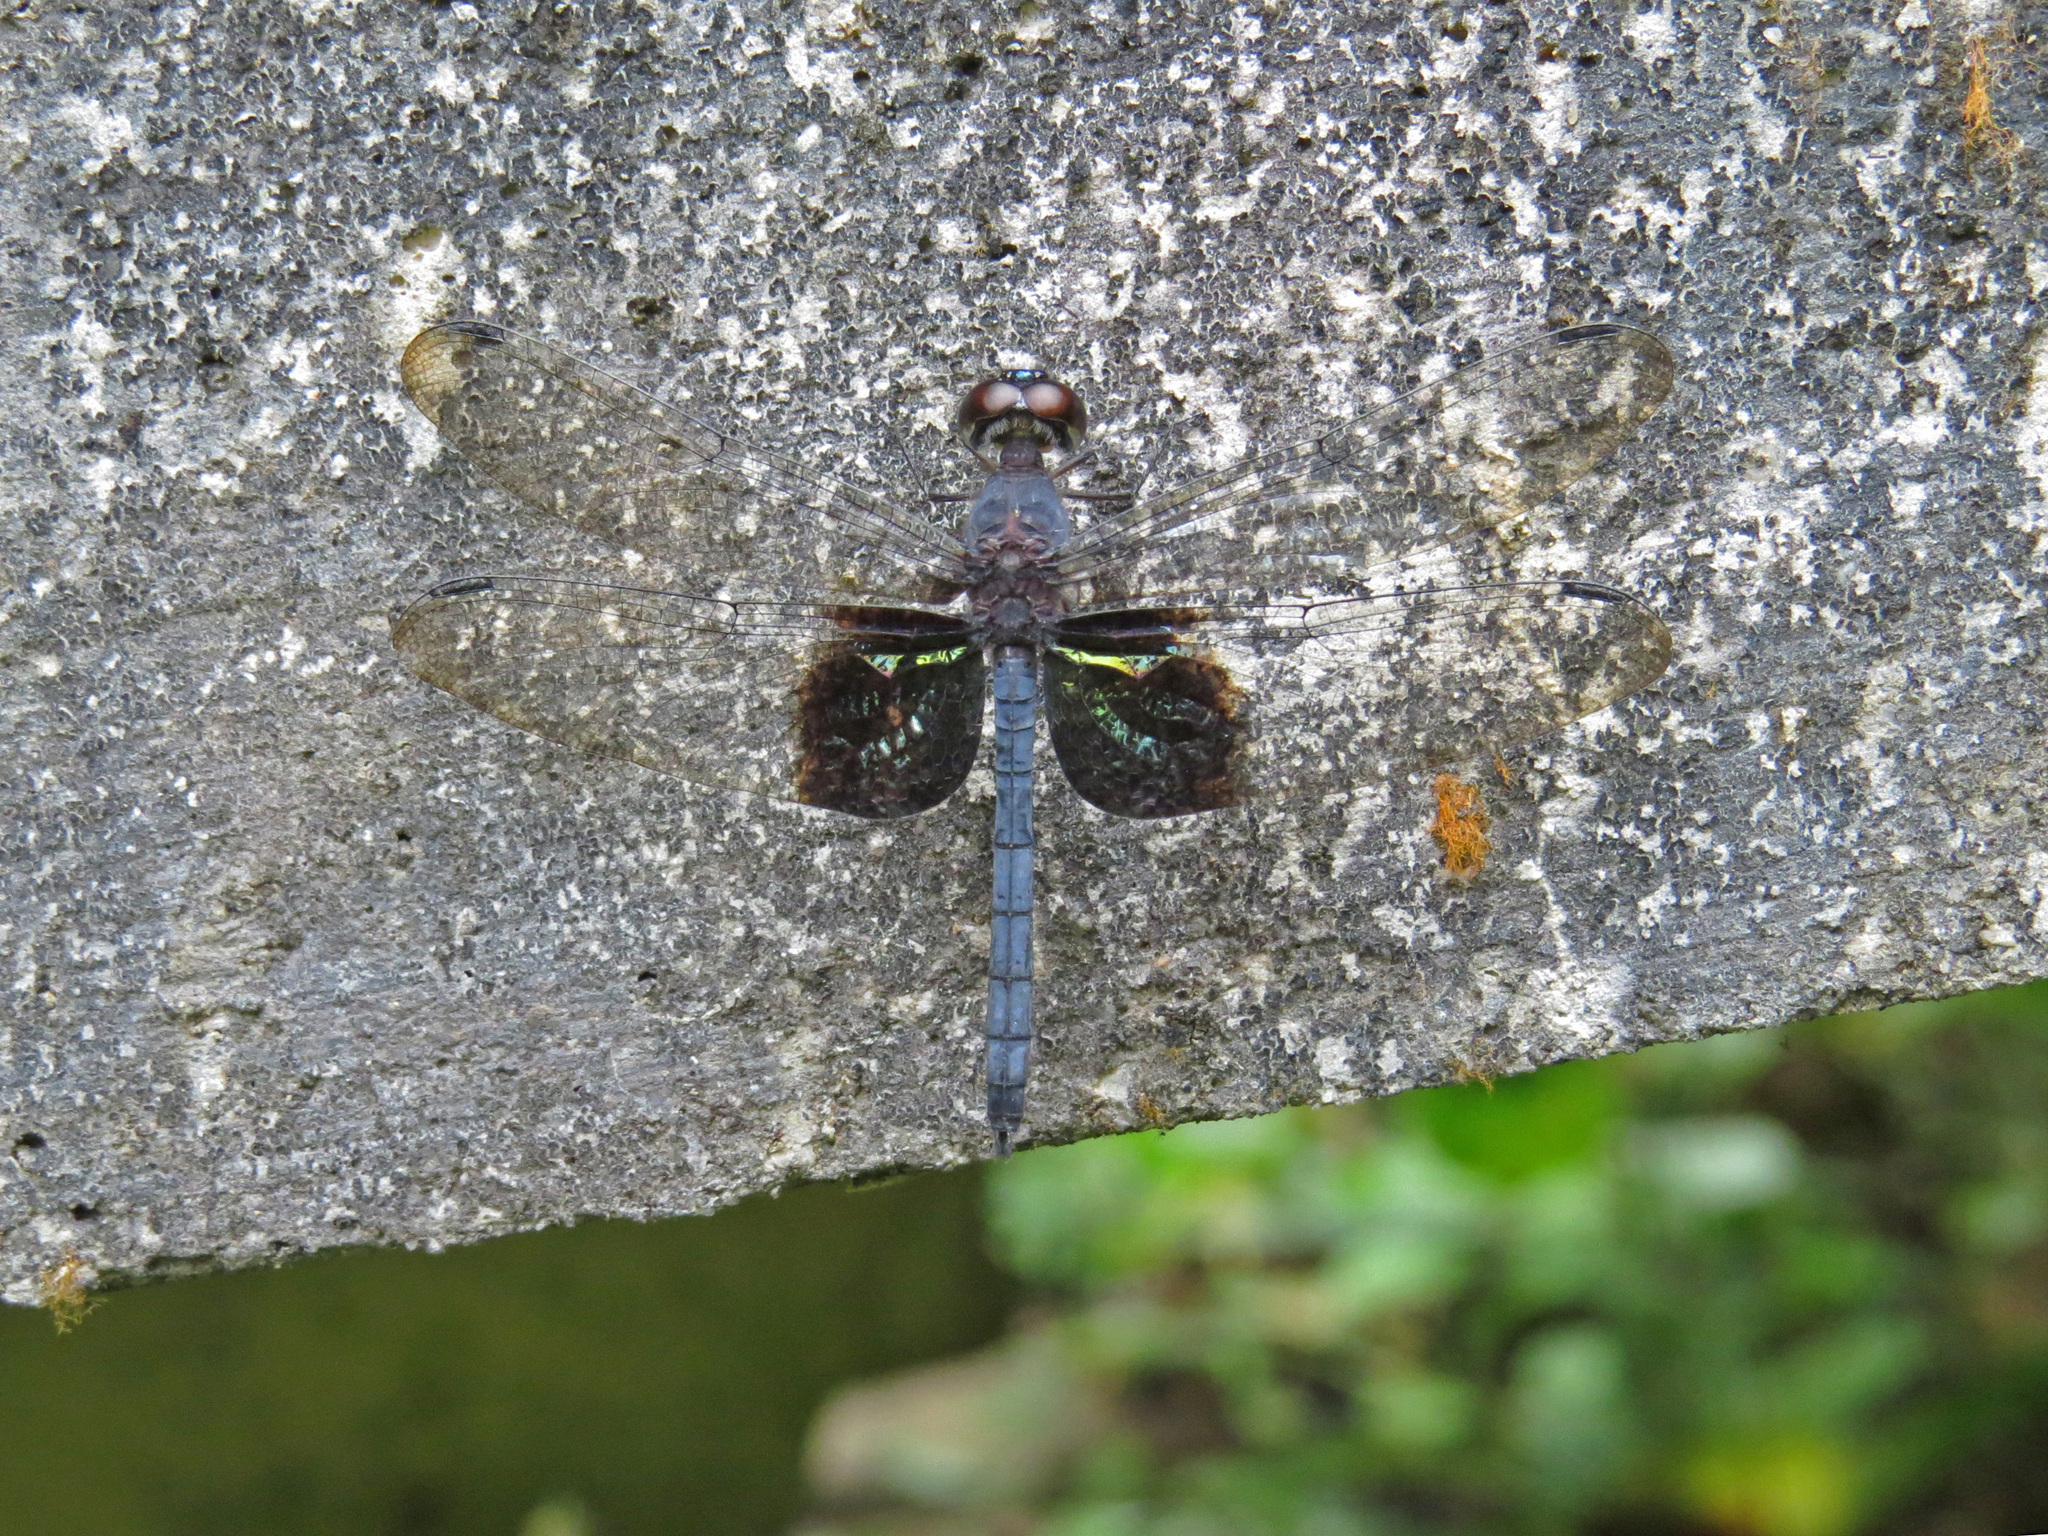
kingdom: Animalia
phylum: Arthropoda
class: Insecta
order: Odonata
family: Libellulidae
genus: Tyriobapta
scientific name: Tyriobapta torrida
